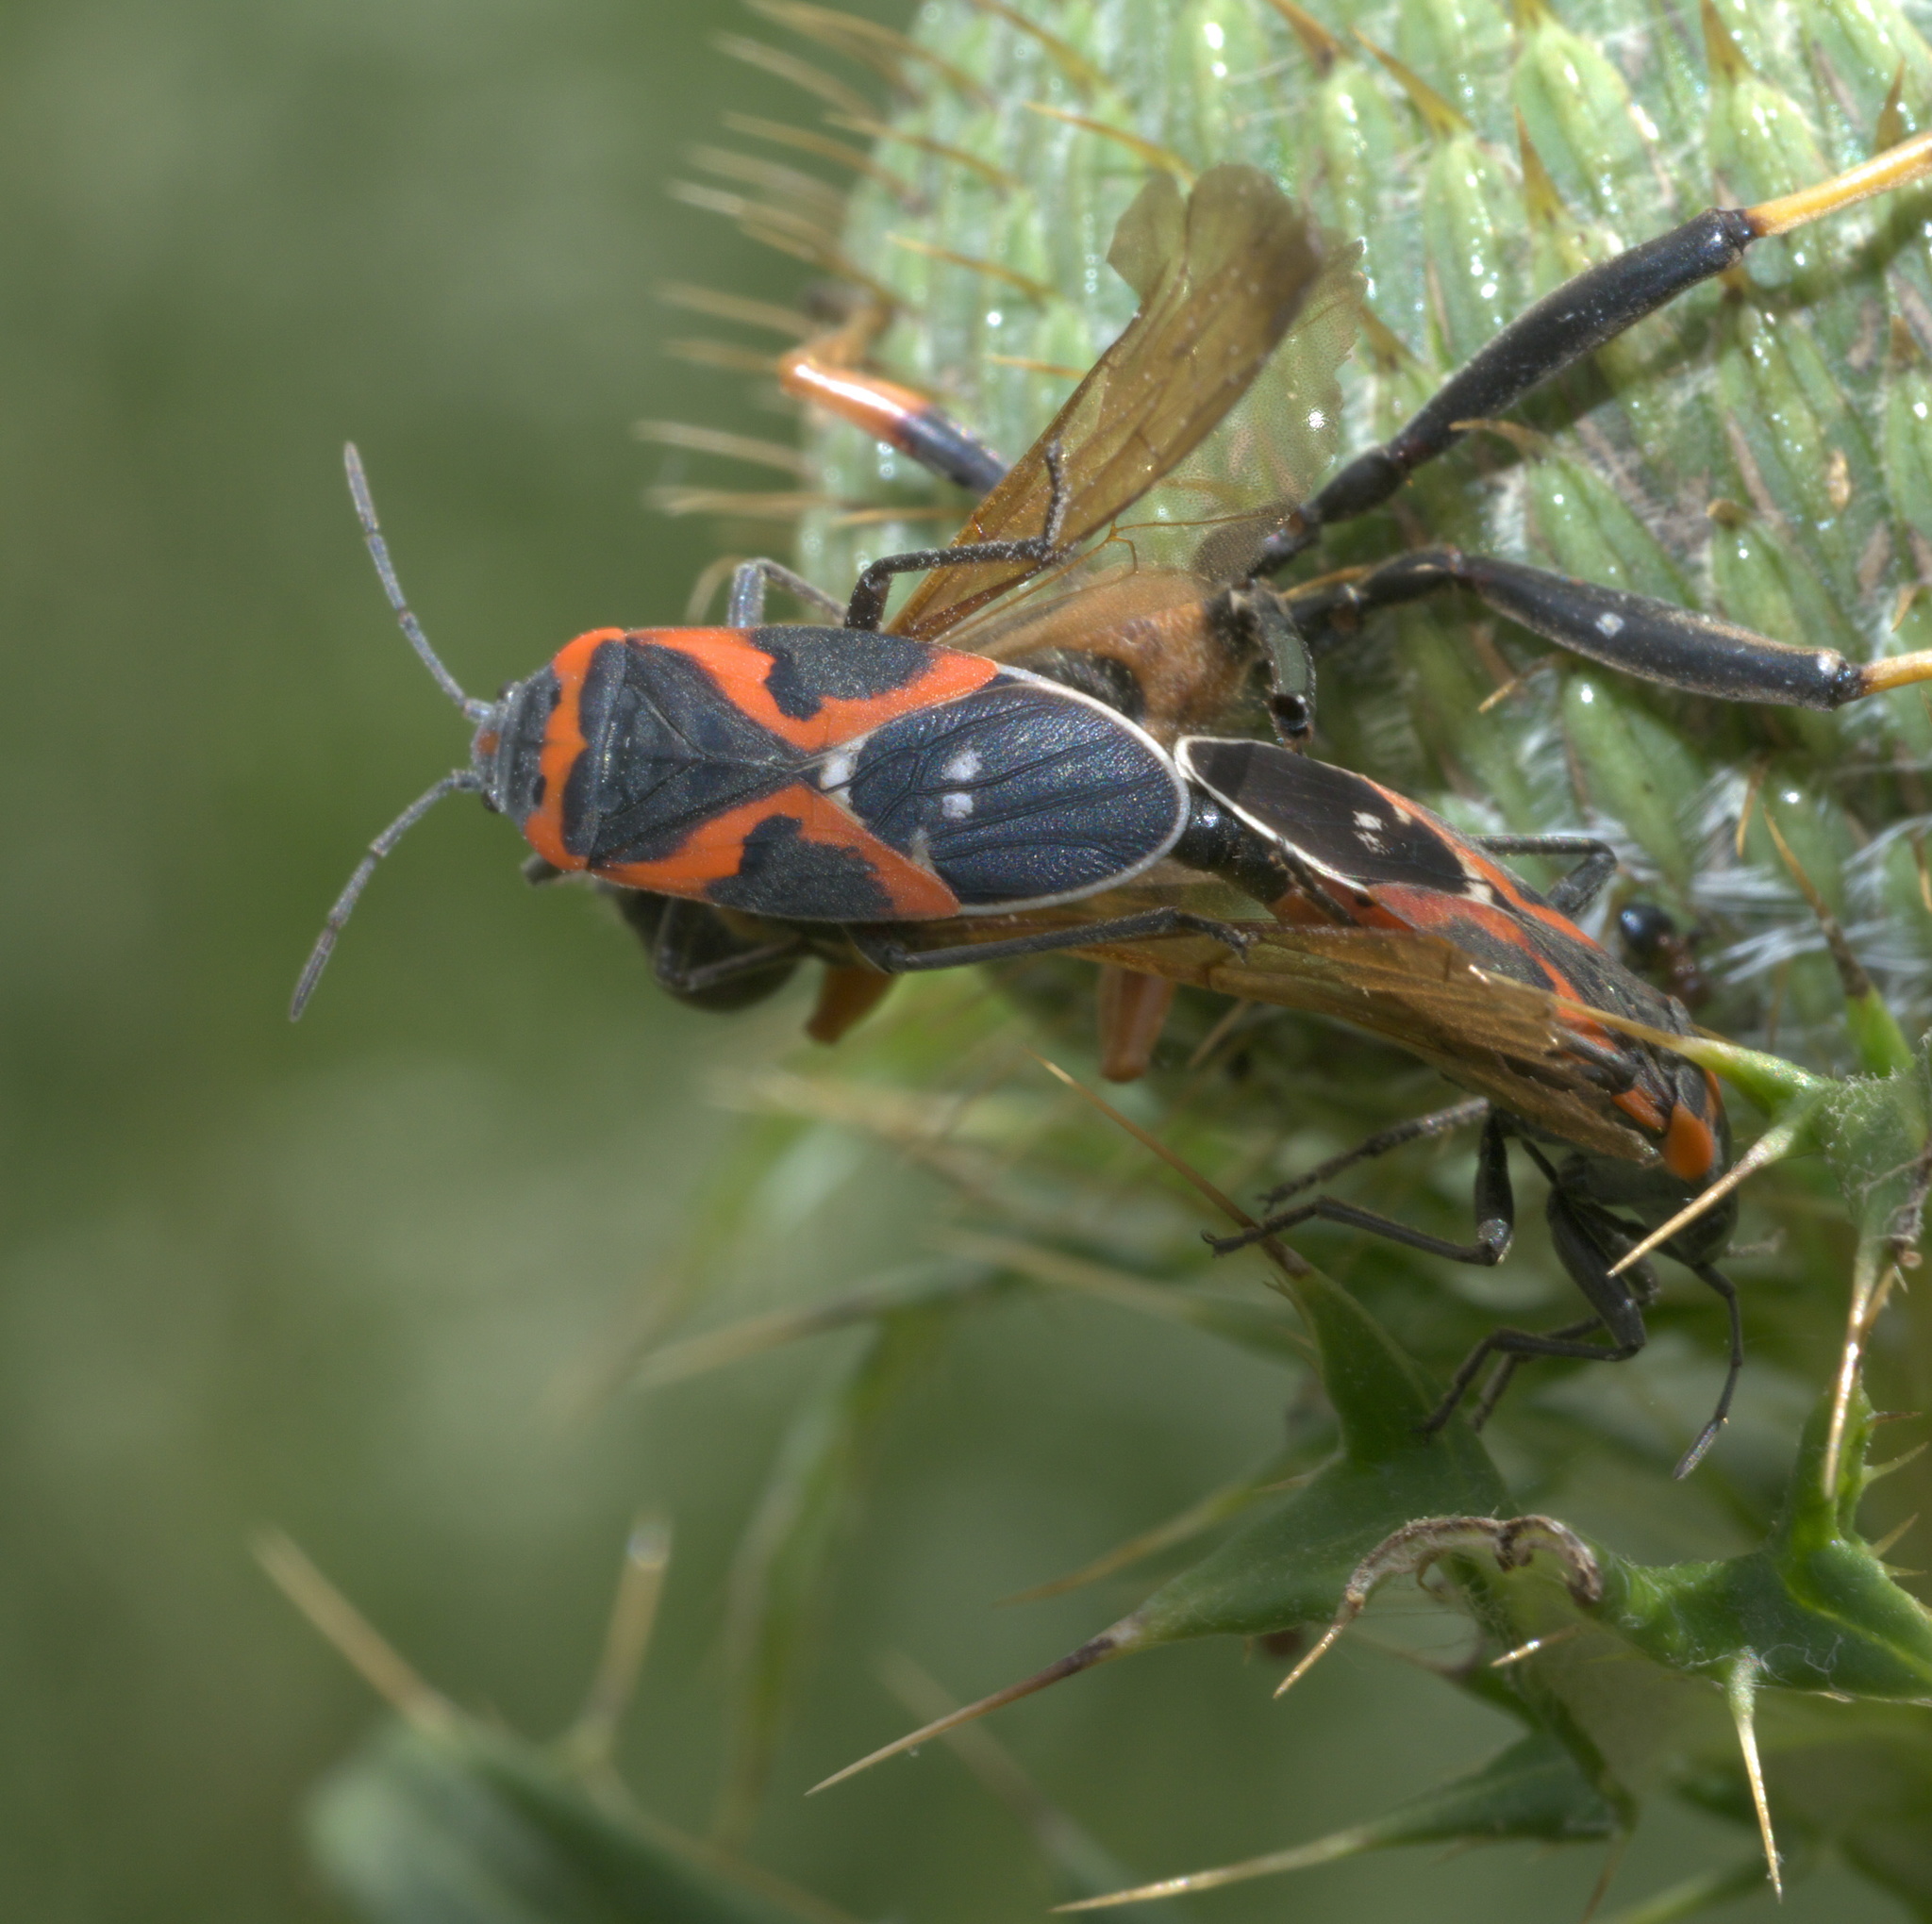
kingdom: Animalia
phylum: Arthropoda
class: Insecta
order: Hemiptera
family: Lygaeidae
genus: Lygaeus
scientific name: Lygaeus kalmii
